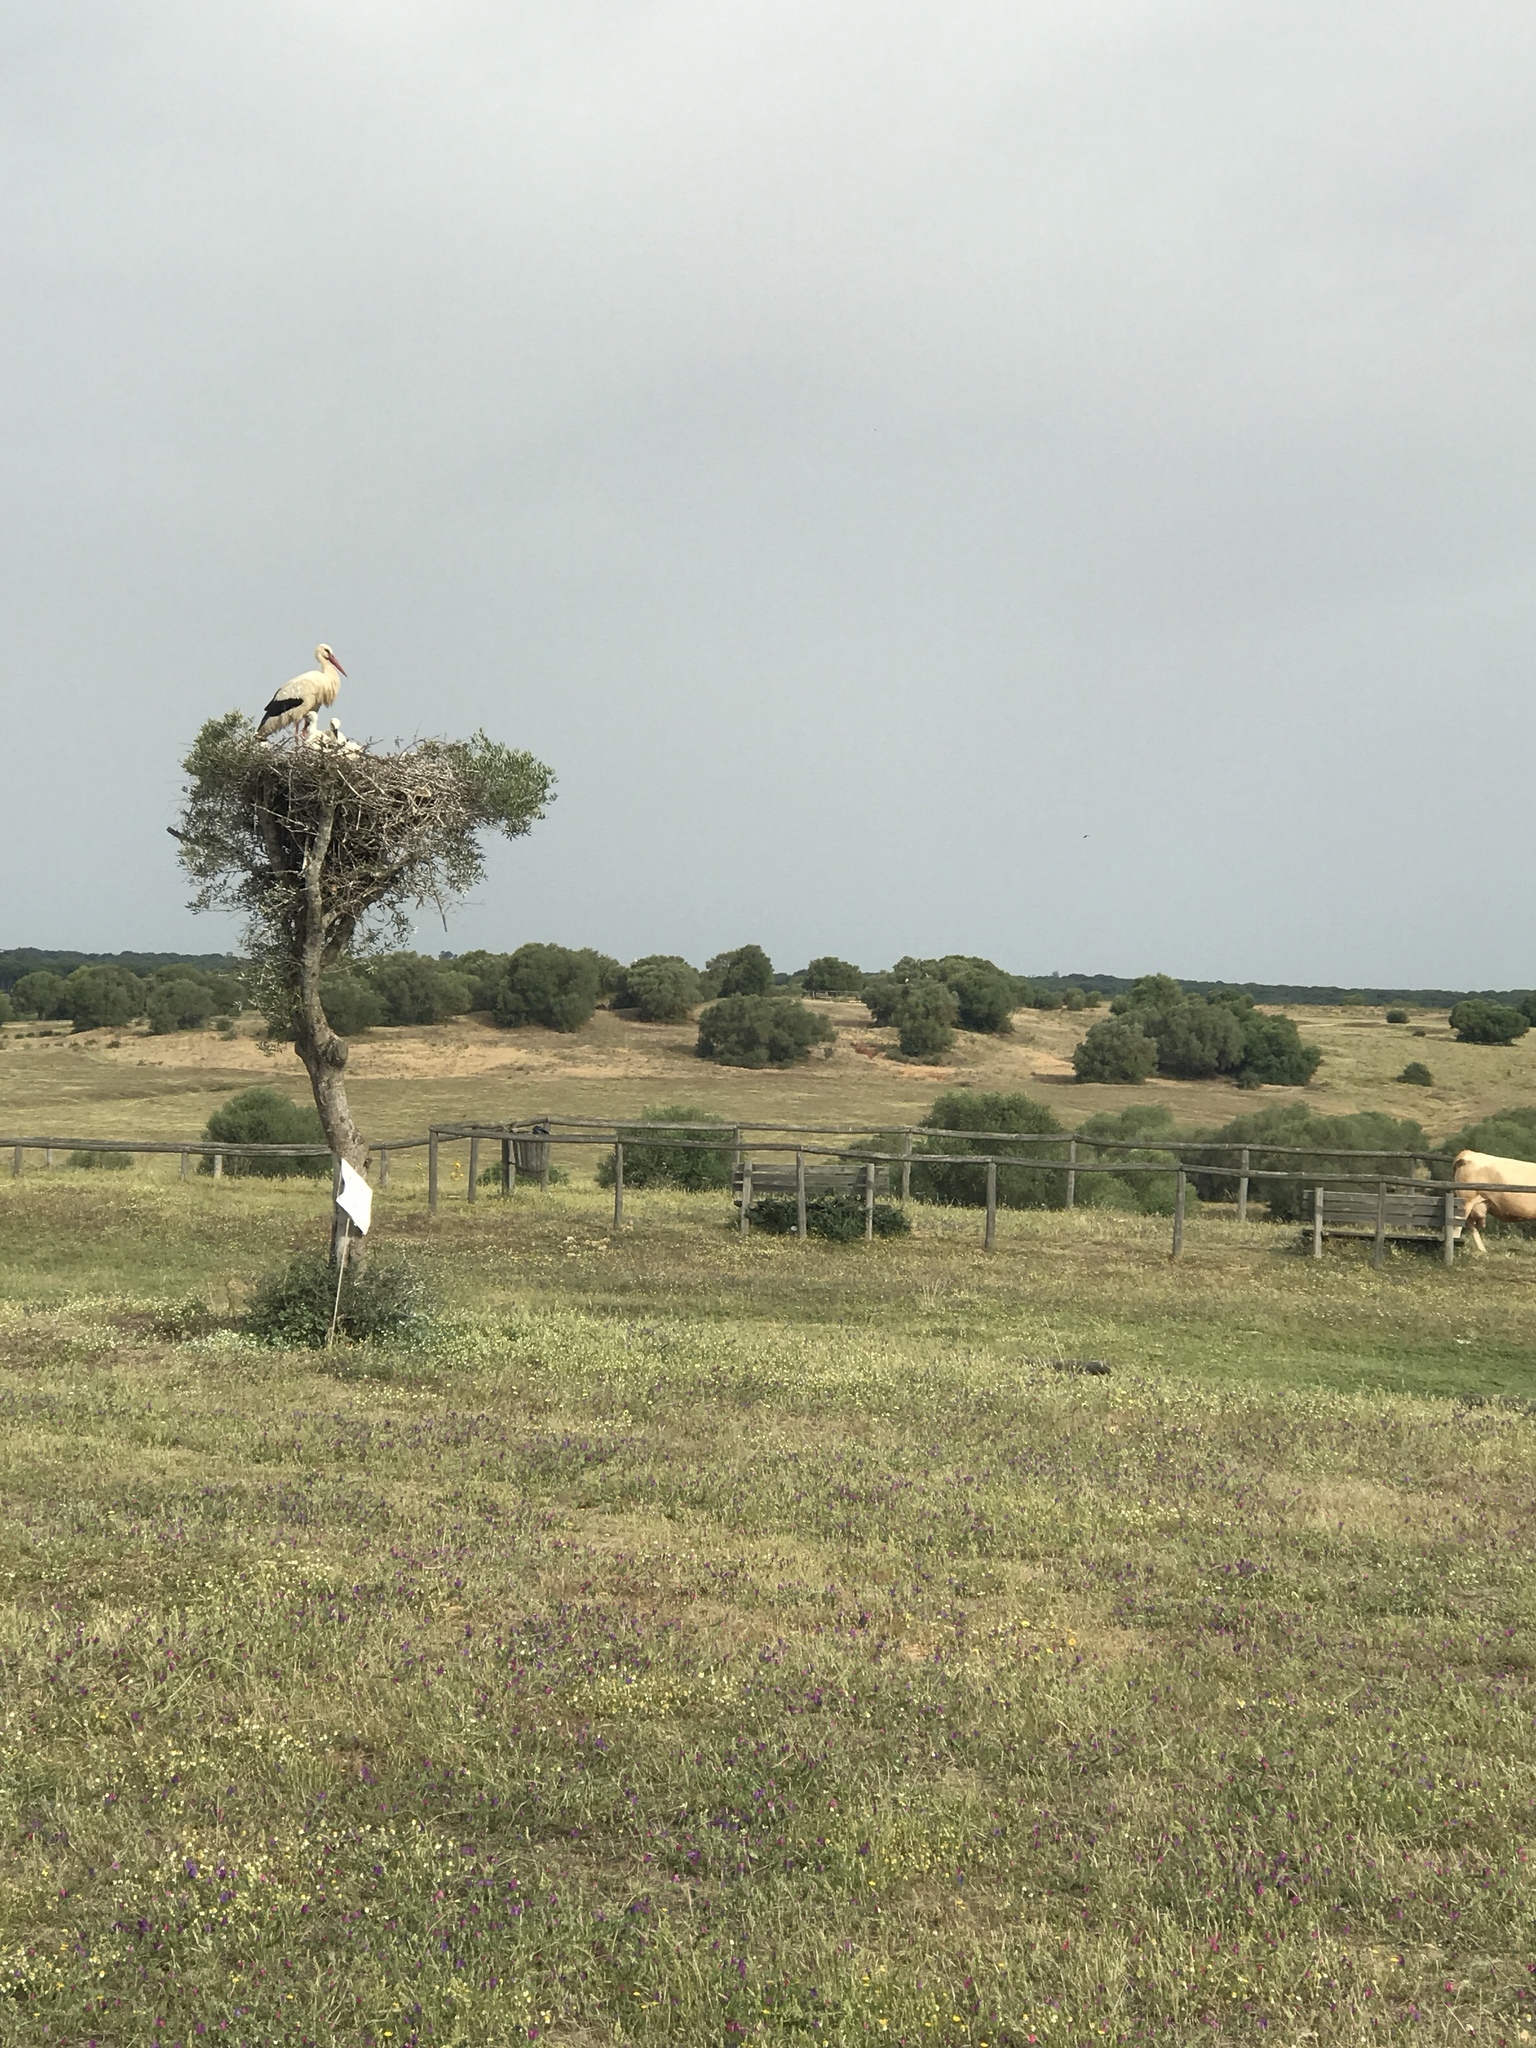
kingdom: Animalia
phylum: Chordata
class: Aves
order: Ciconiiformes
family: Ciconiidae
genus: Ciconia
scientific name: Ciconia ciconia
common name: White stork
